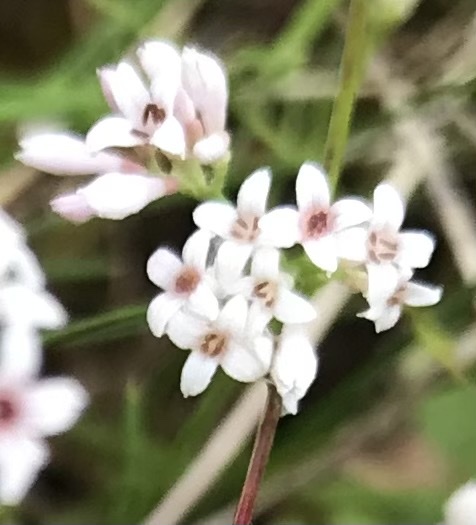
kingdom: Plantae
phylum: Tracheophyta
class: Magnoliopsida
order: Gentianales
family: Rubiaceae
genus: Cynanchica
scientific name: Cynanchica pyrenaica
